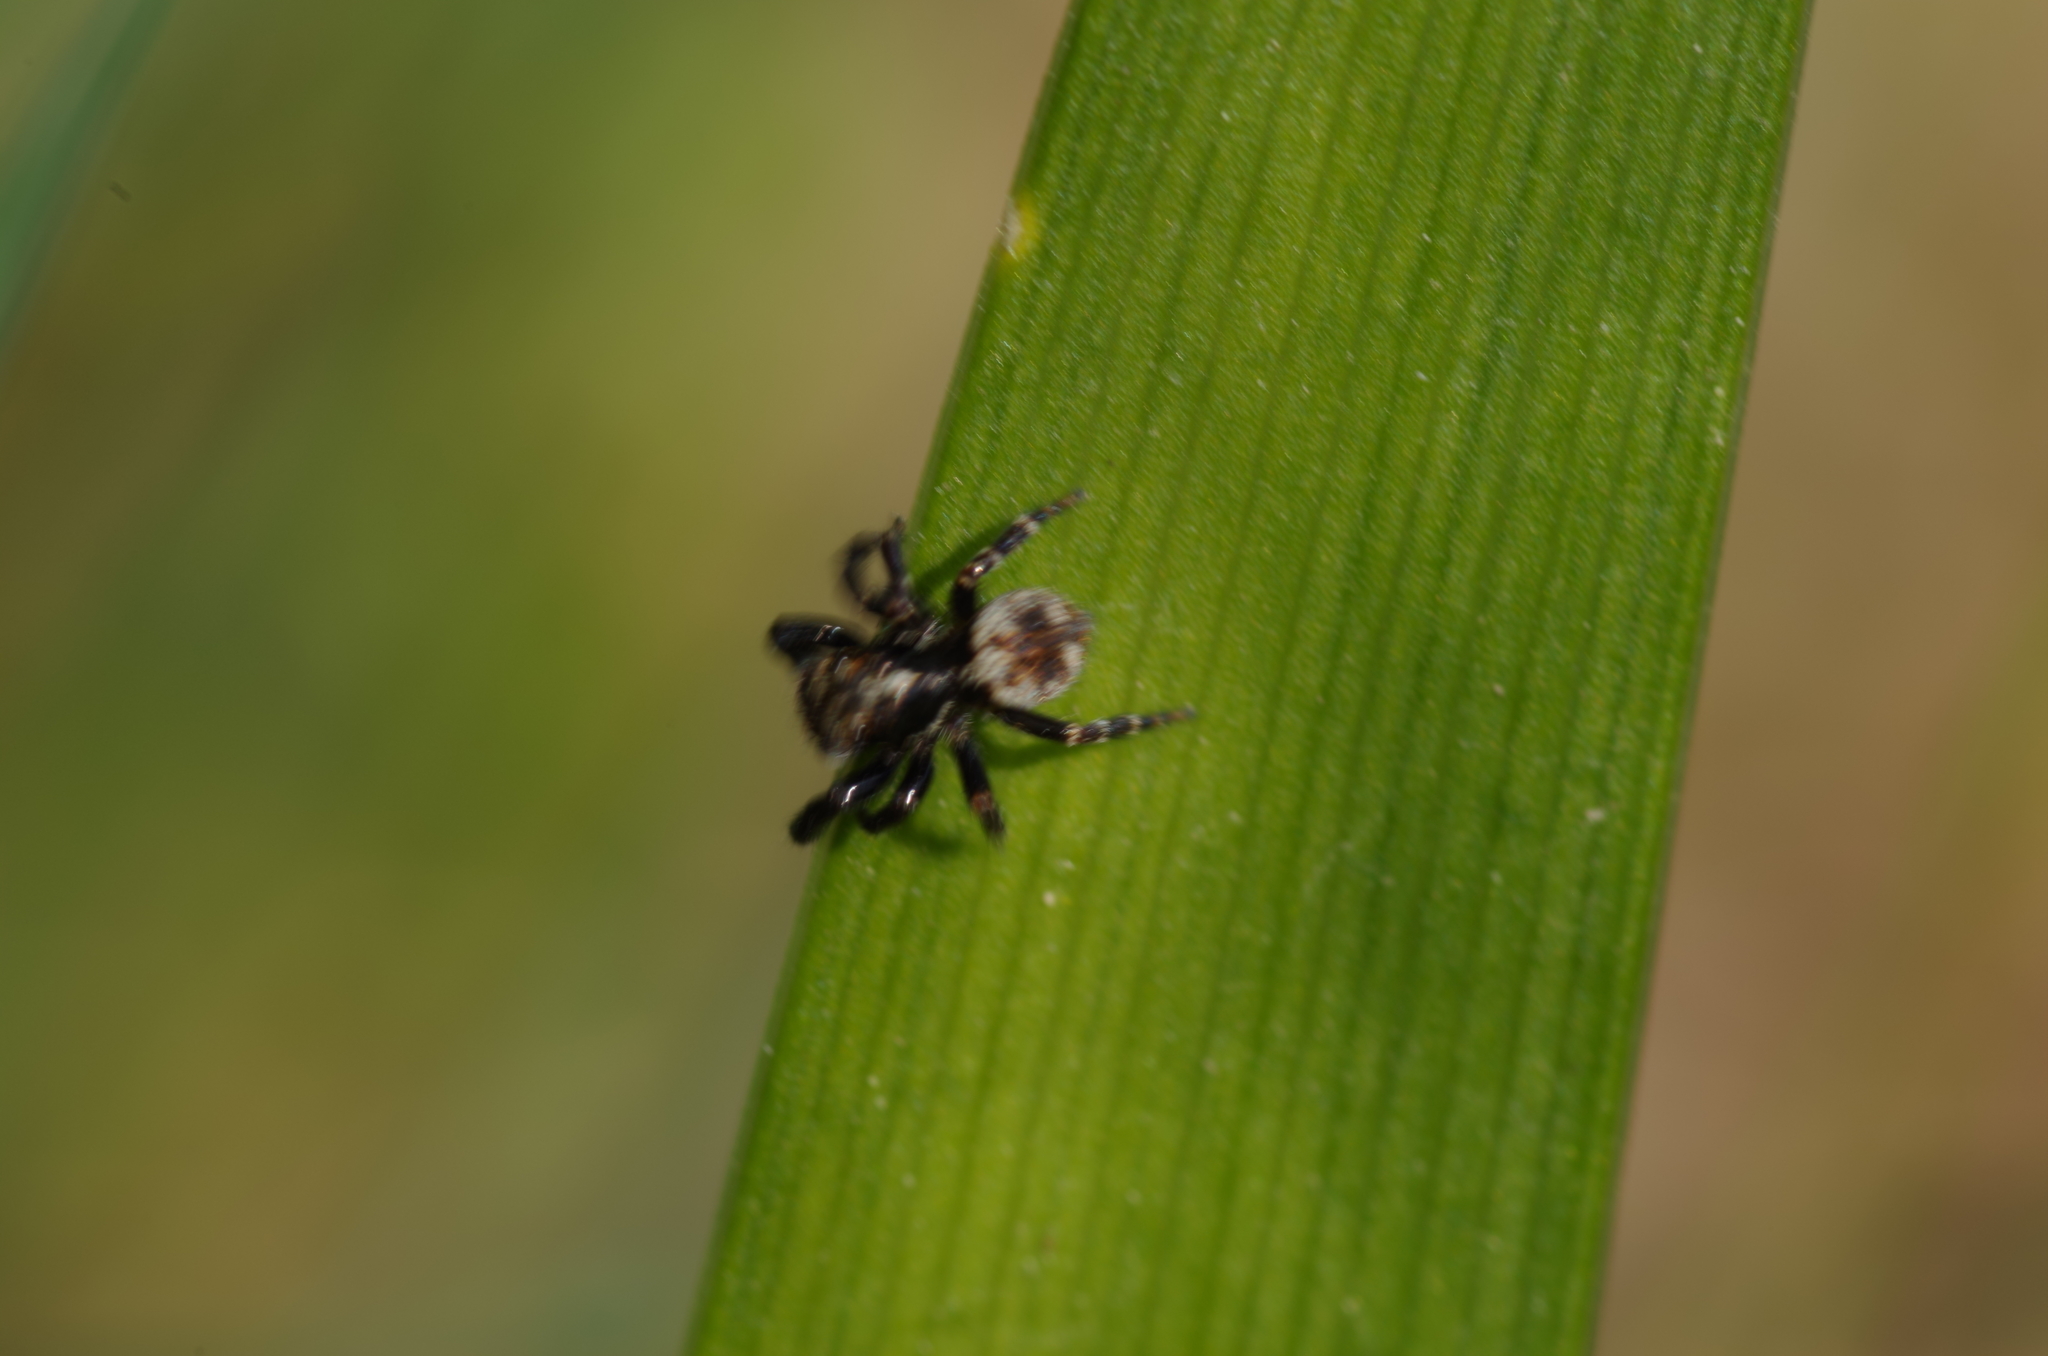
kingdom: Animalia
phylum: Arthropoda
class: Arachnida
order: Araneae
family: Salticidae
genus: Pseudeuophrys
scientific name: Pseudeuophrys erratica
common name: Jumping spider
